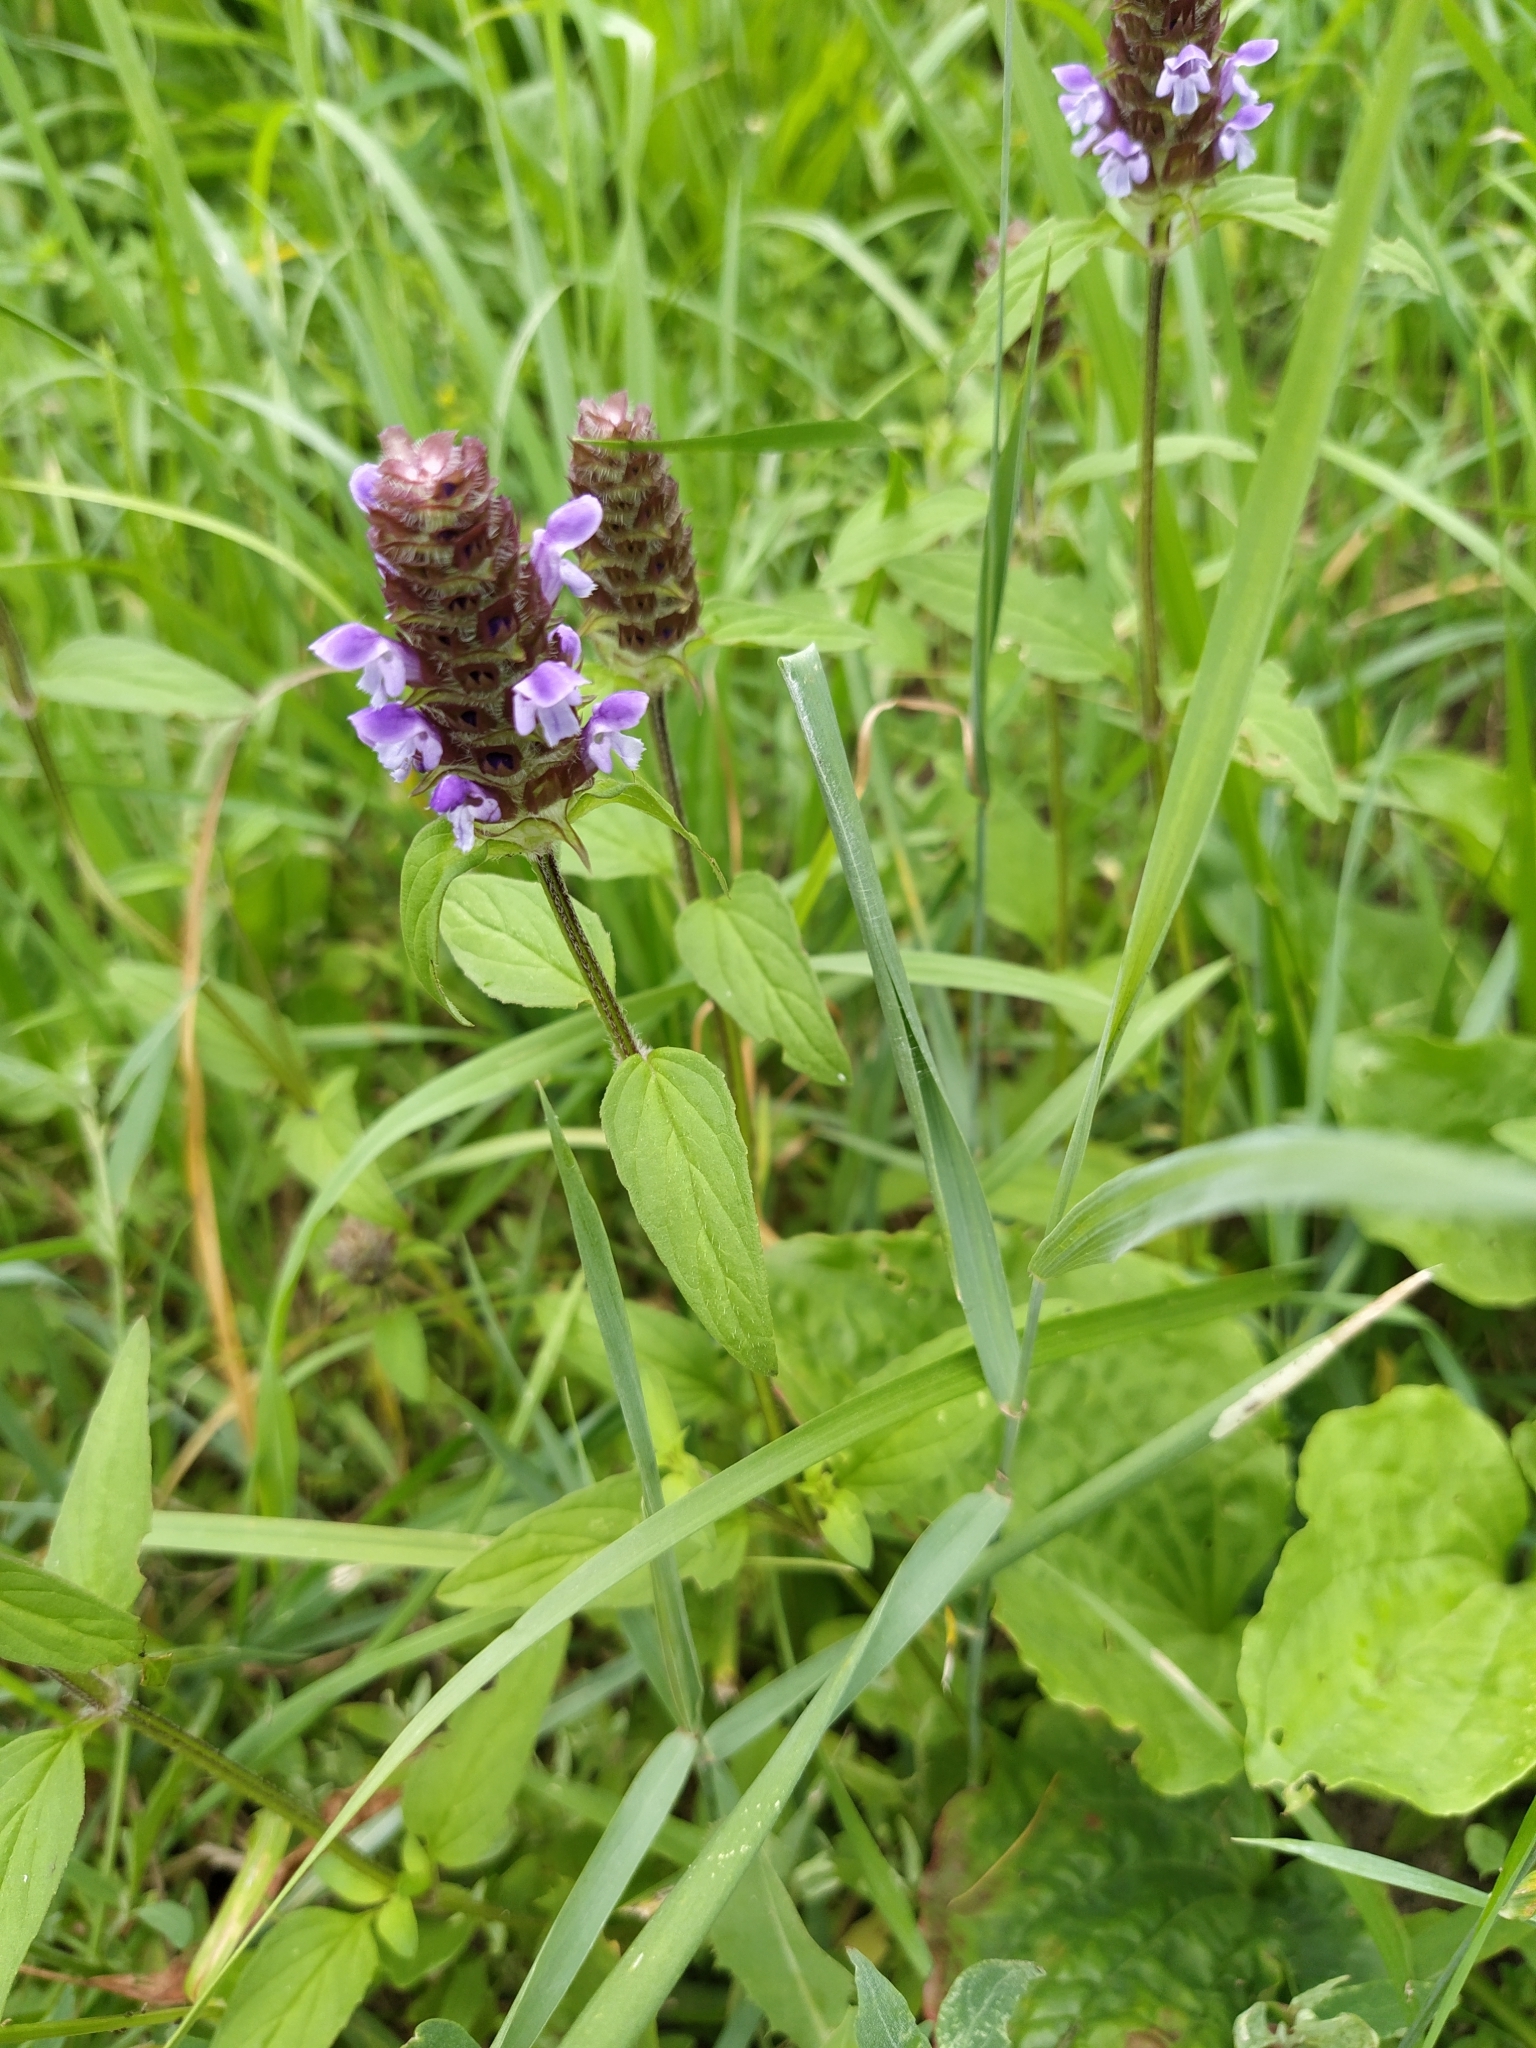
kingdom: Plantae
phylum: Tracheophyta
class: Magnoliopsida
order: Lamiales
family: Lamiaceae
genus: Prunella
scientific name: Prunella vulgaris
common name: Heal-all
